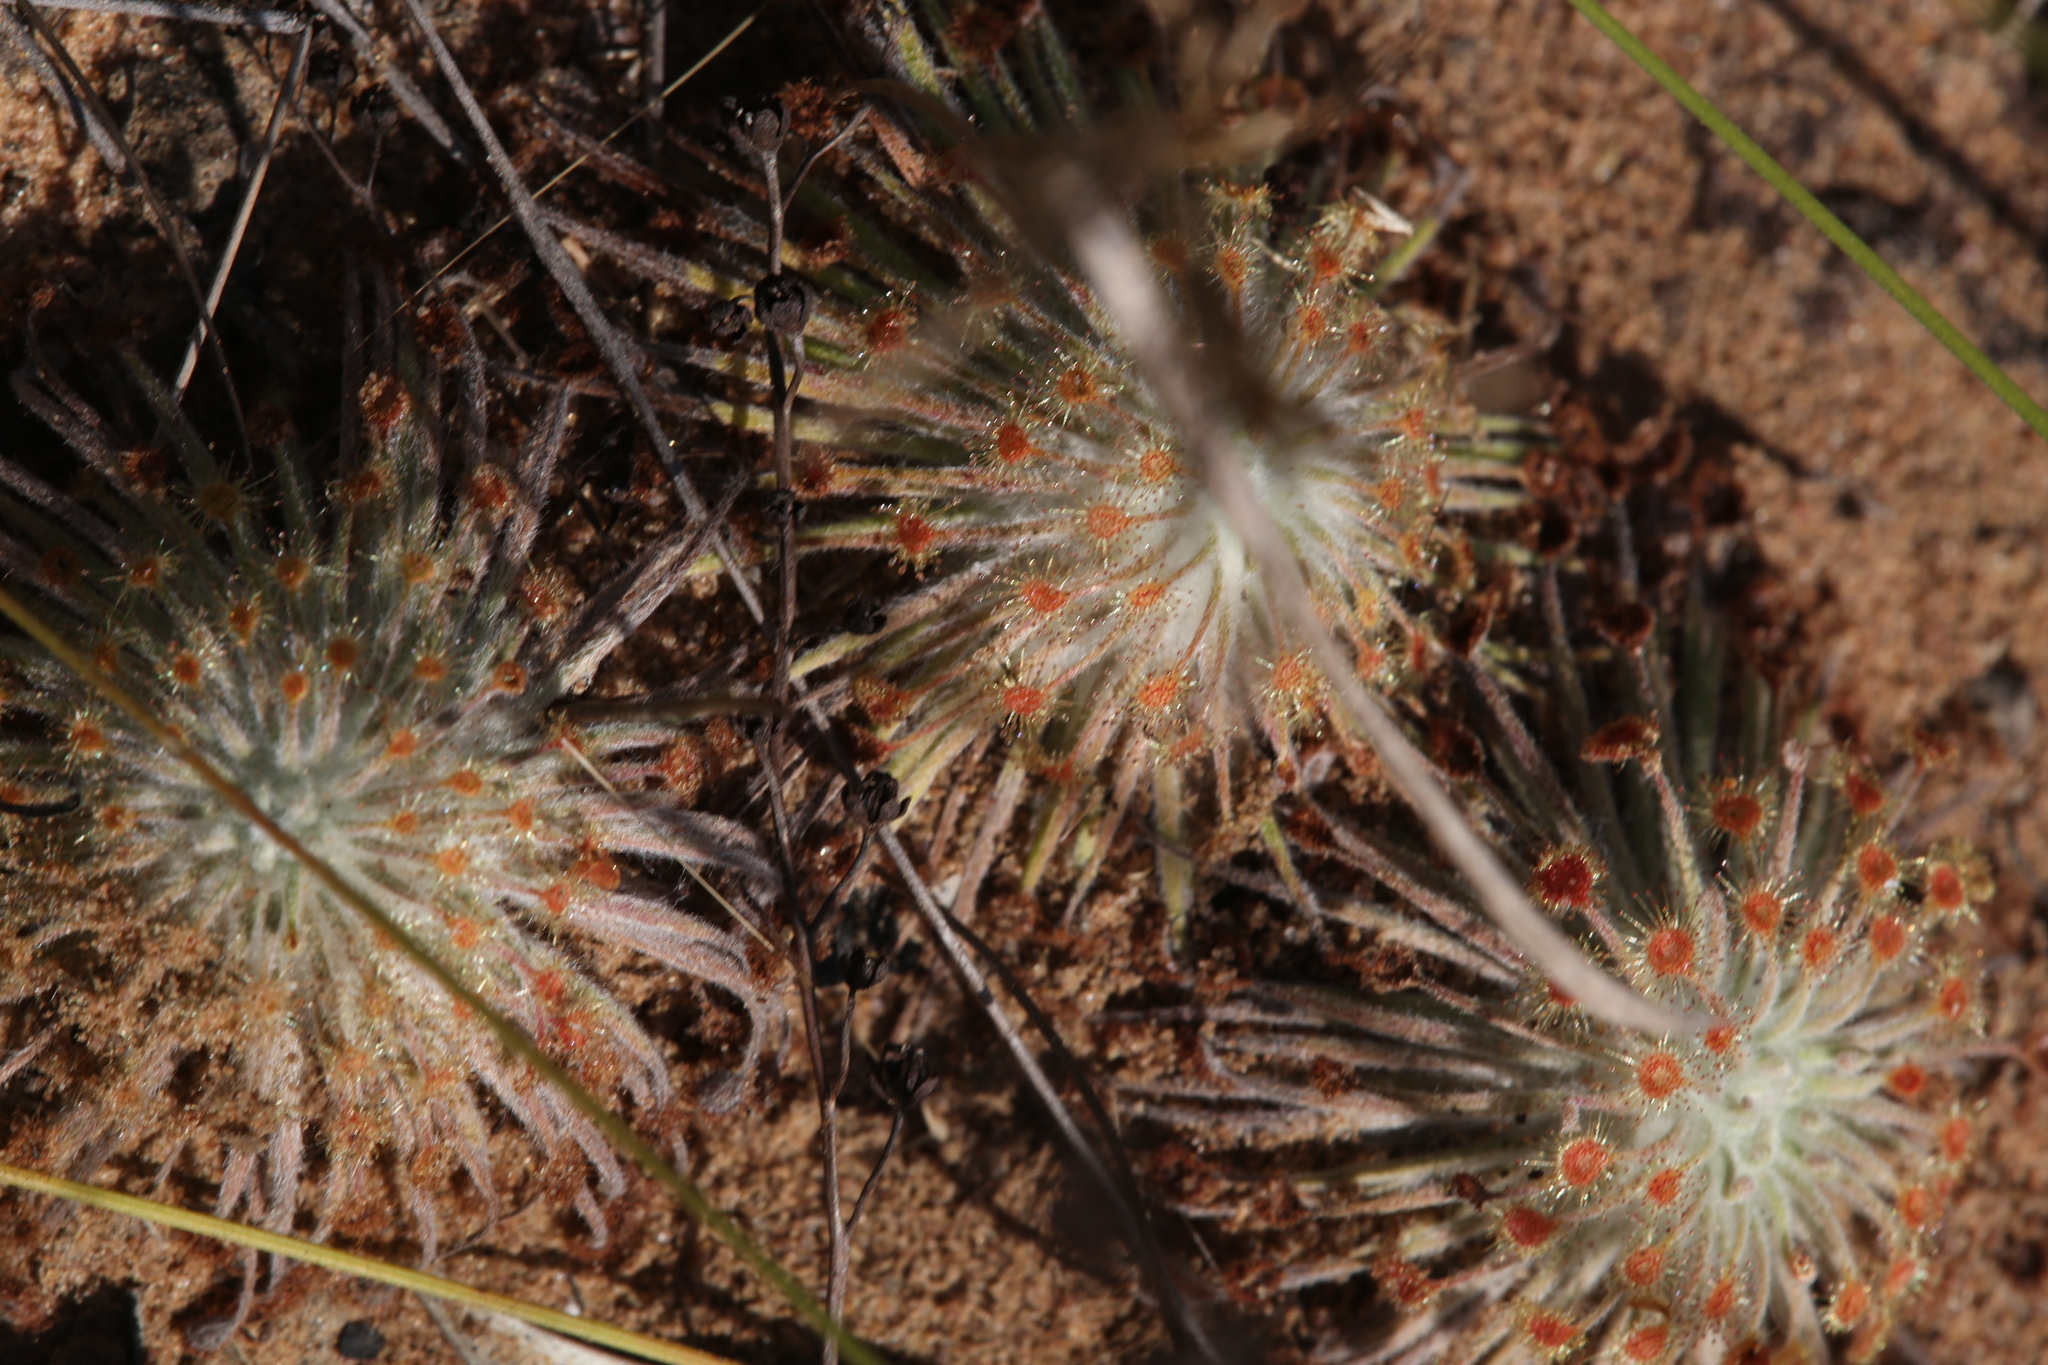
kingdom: Plantae
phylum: Tracheophyta
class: Magnoliopsida
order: Caryophyllales
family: Droseraceae
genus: Drosera
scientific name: Drosera broomensis
